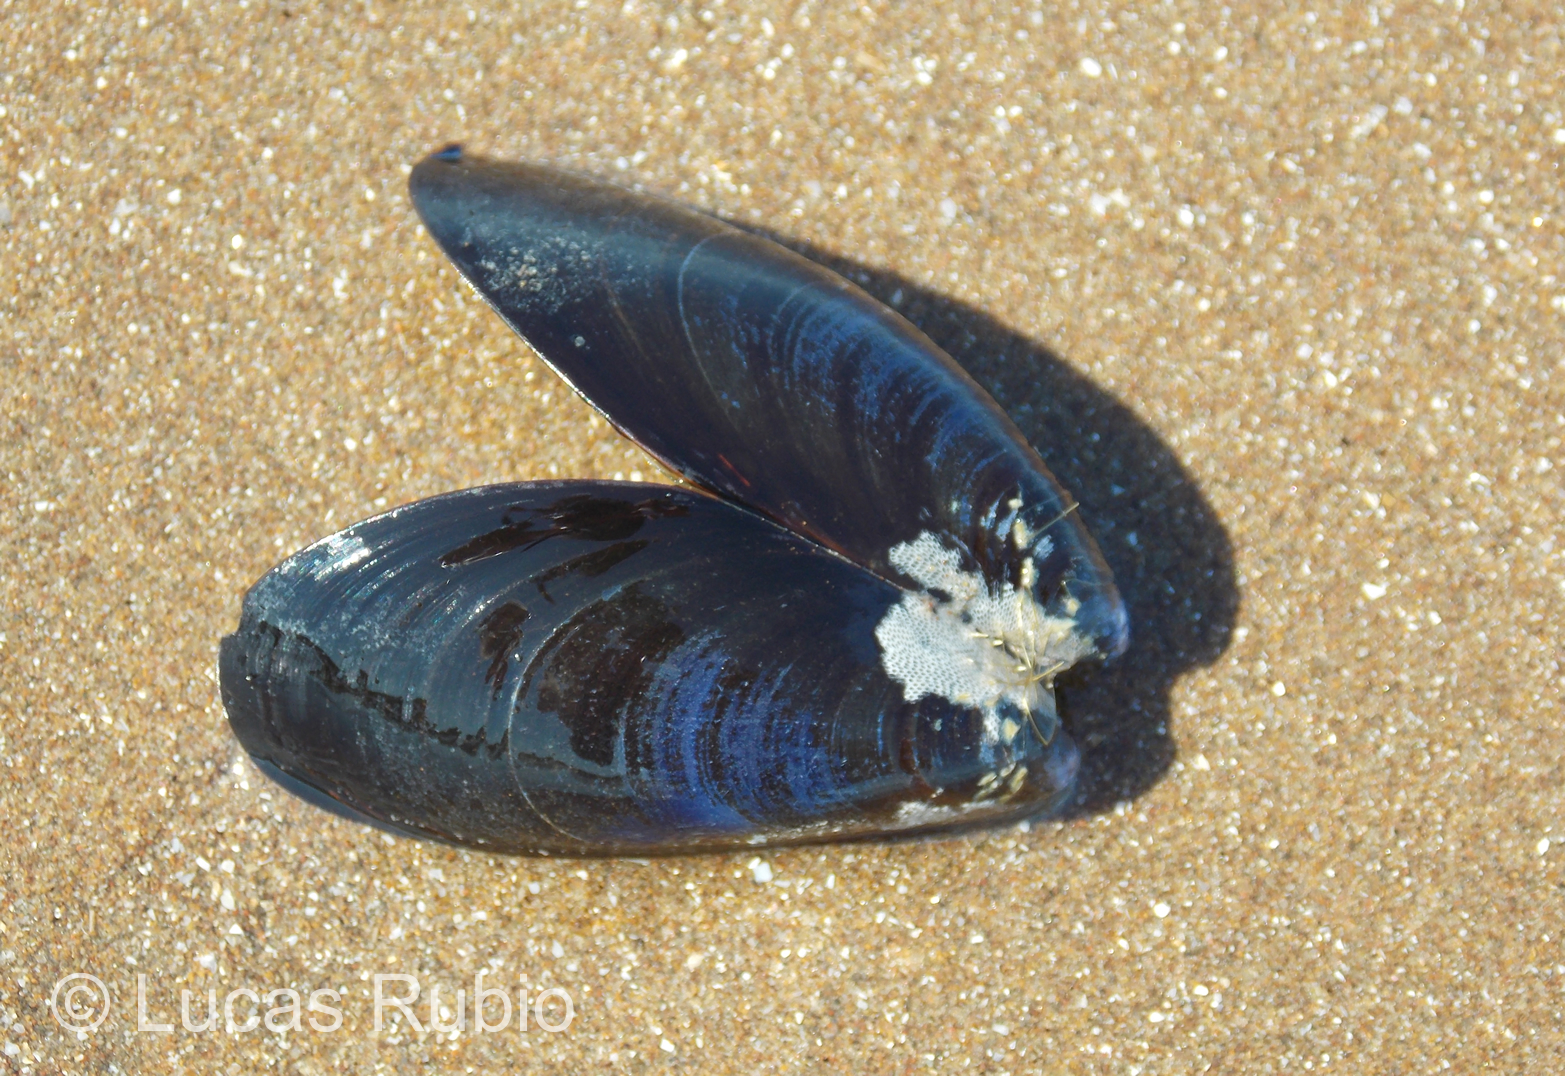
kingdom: Animalia
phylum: Mollusca
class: Bivalvia
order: Mytilida
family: Mytilidae
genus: Mytilus
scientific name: Mytilus platensis
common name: Chilean mussel
